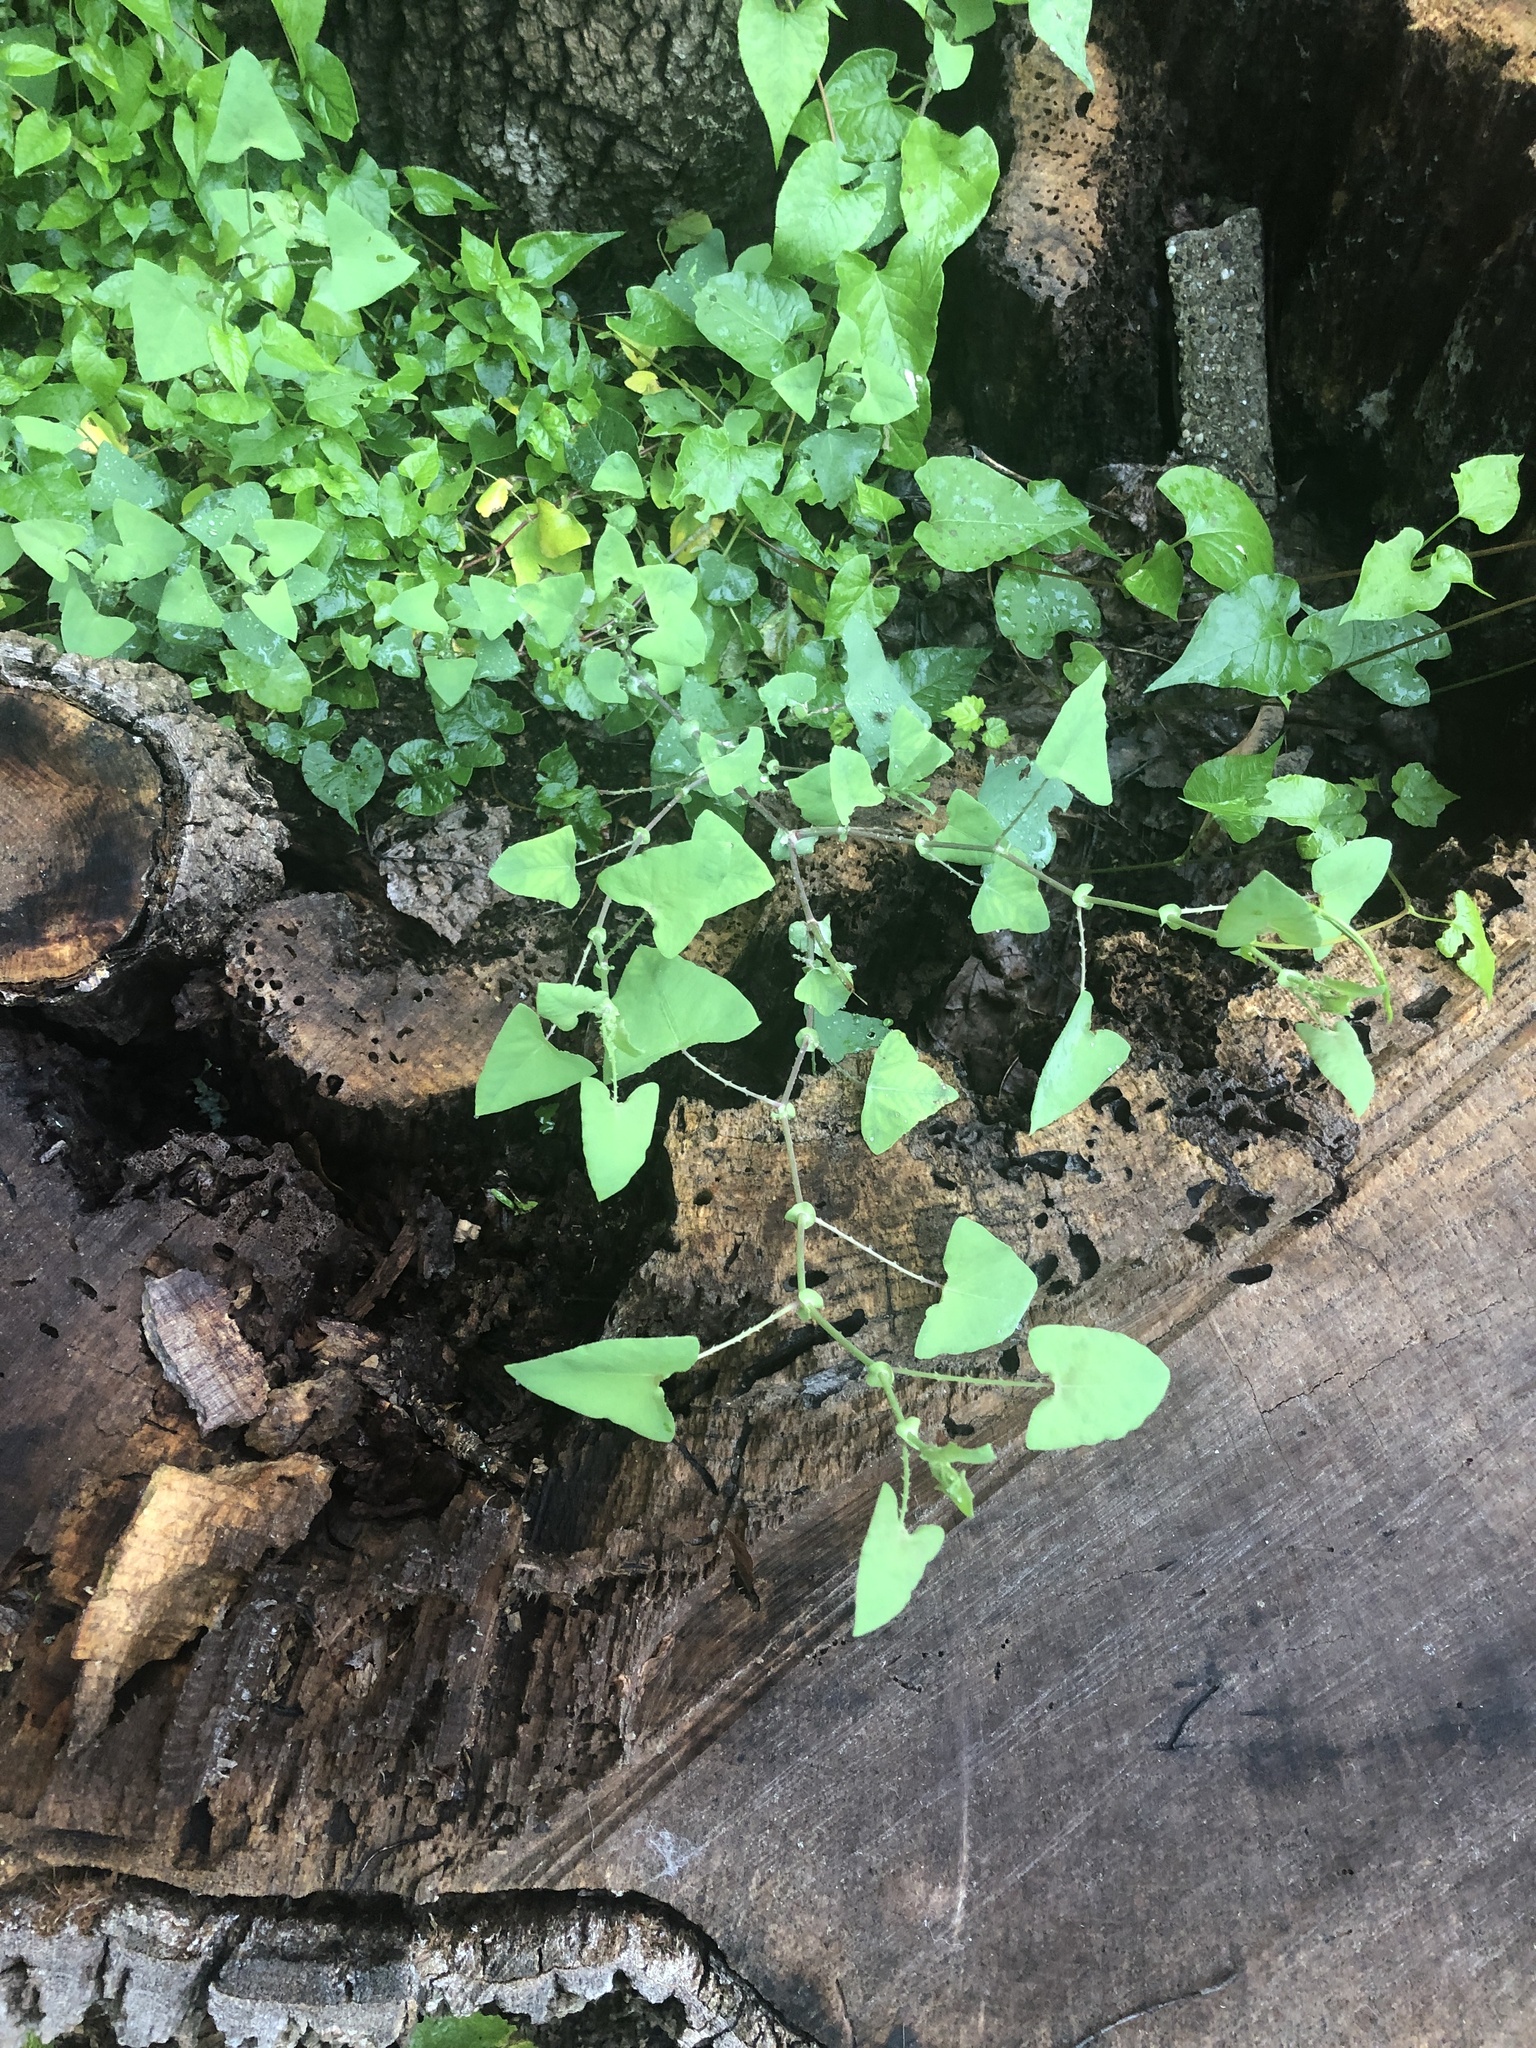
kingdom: Plantae
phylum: Tracheophyta
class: Magnoliopsida
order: Caryophyllales
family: Polygonaceae
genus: Persicaria
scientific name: Persicaria perfoliata
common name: Asiatic tearthumb
